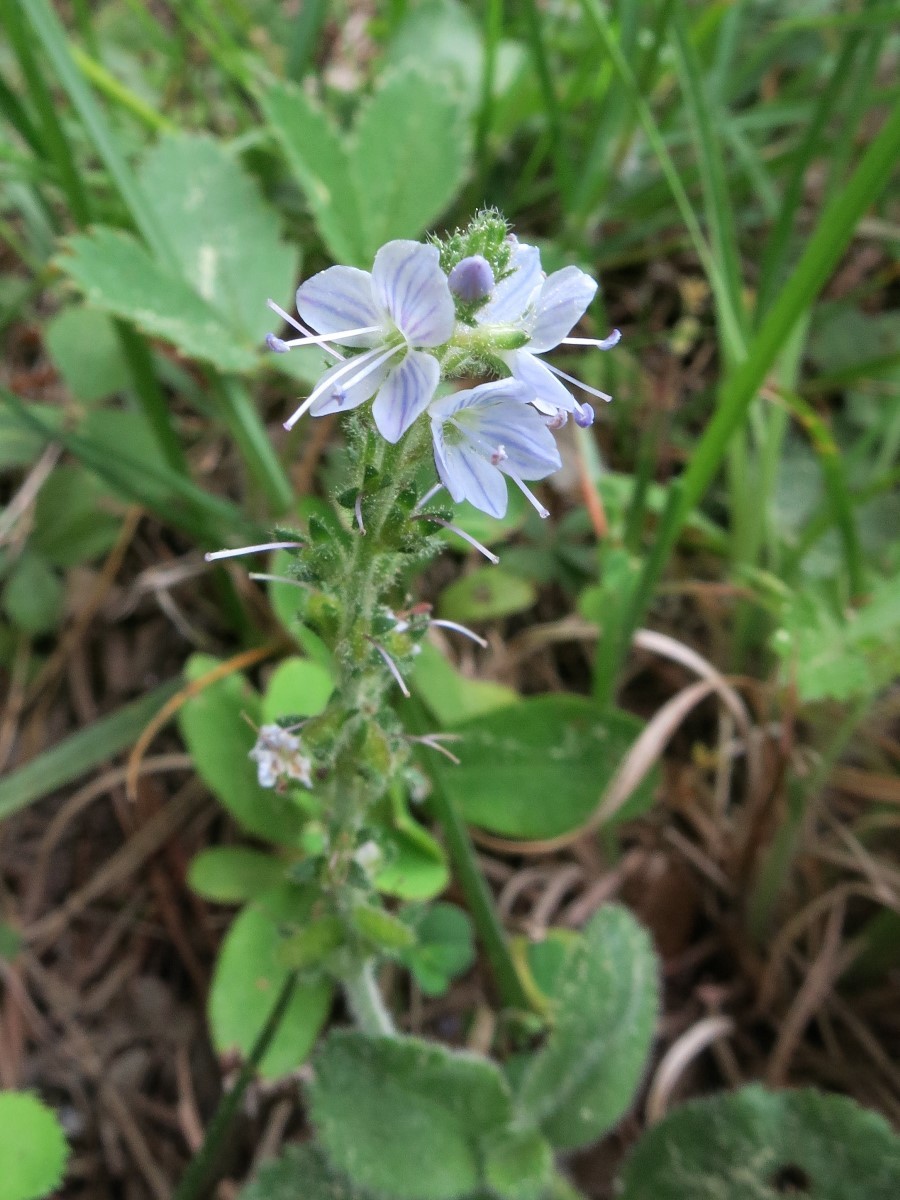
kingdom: Plantae
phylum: Tracheophyta
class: Magnoliopsida
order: Lamiales
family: Plantaginaceae
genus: Veronica
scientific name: Veronica officinalis
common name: Common speedwell
